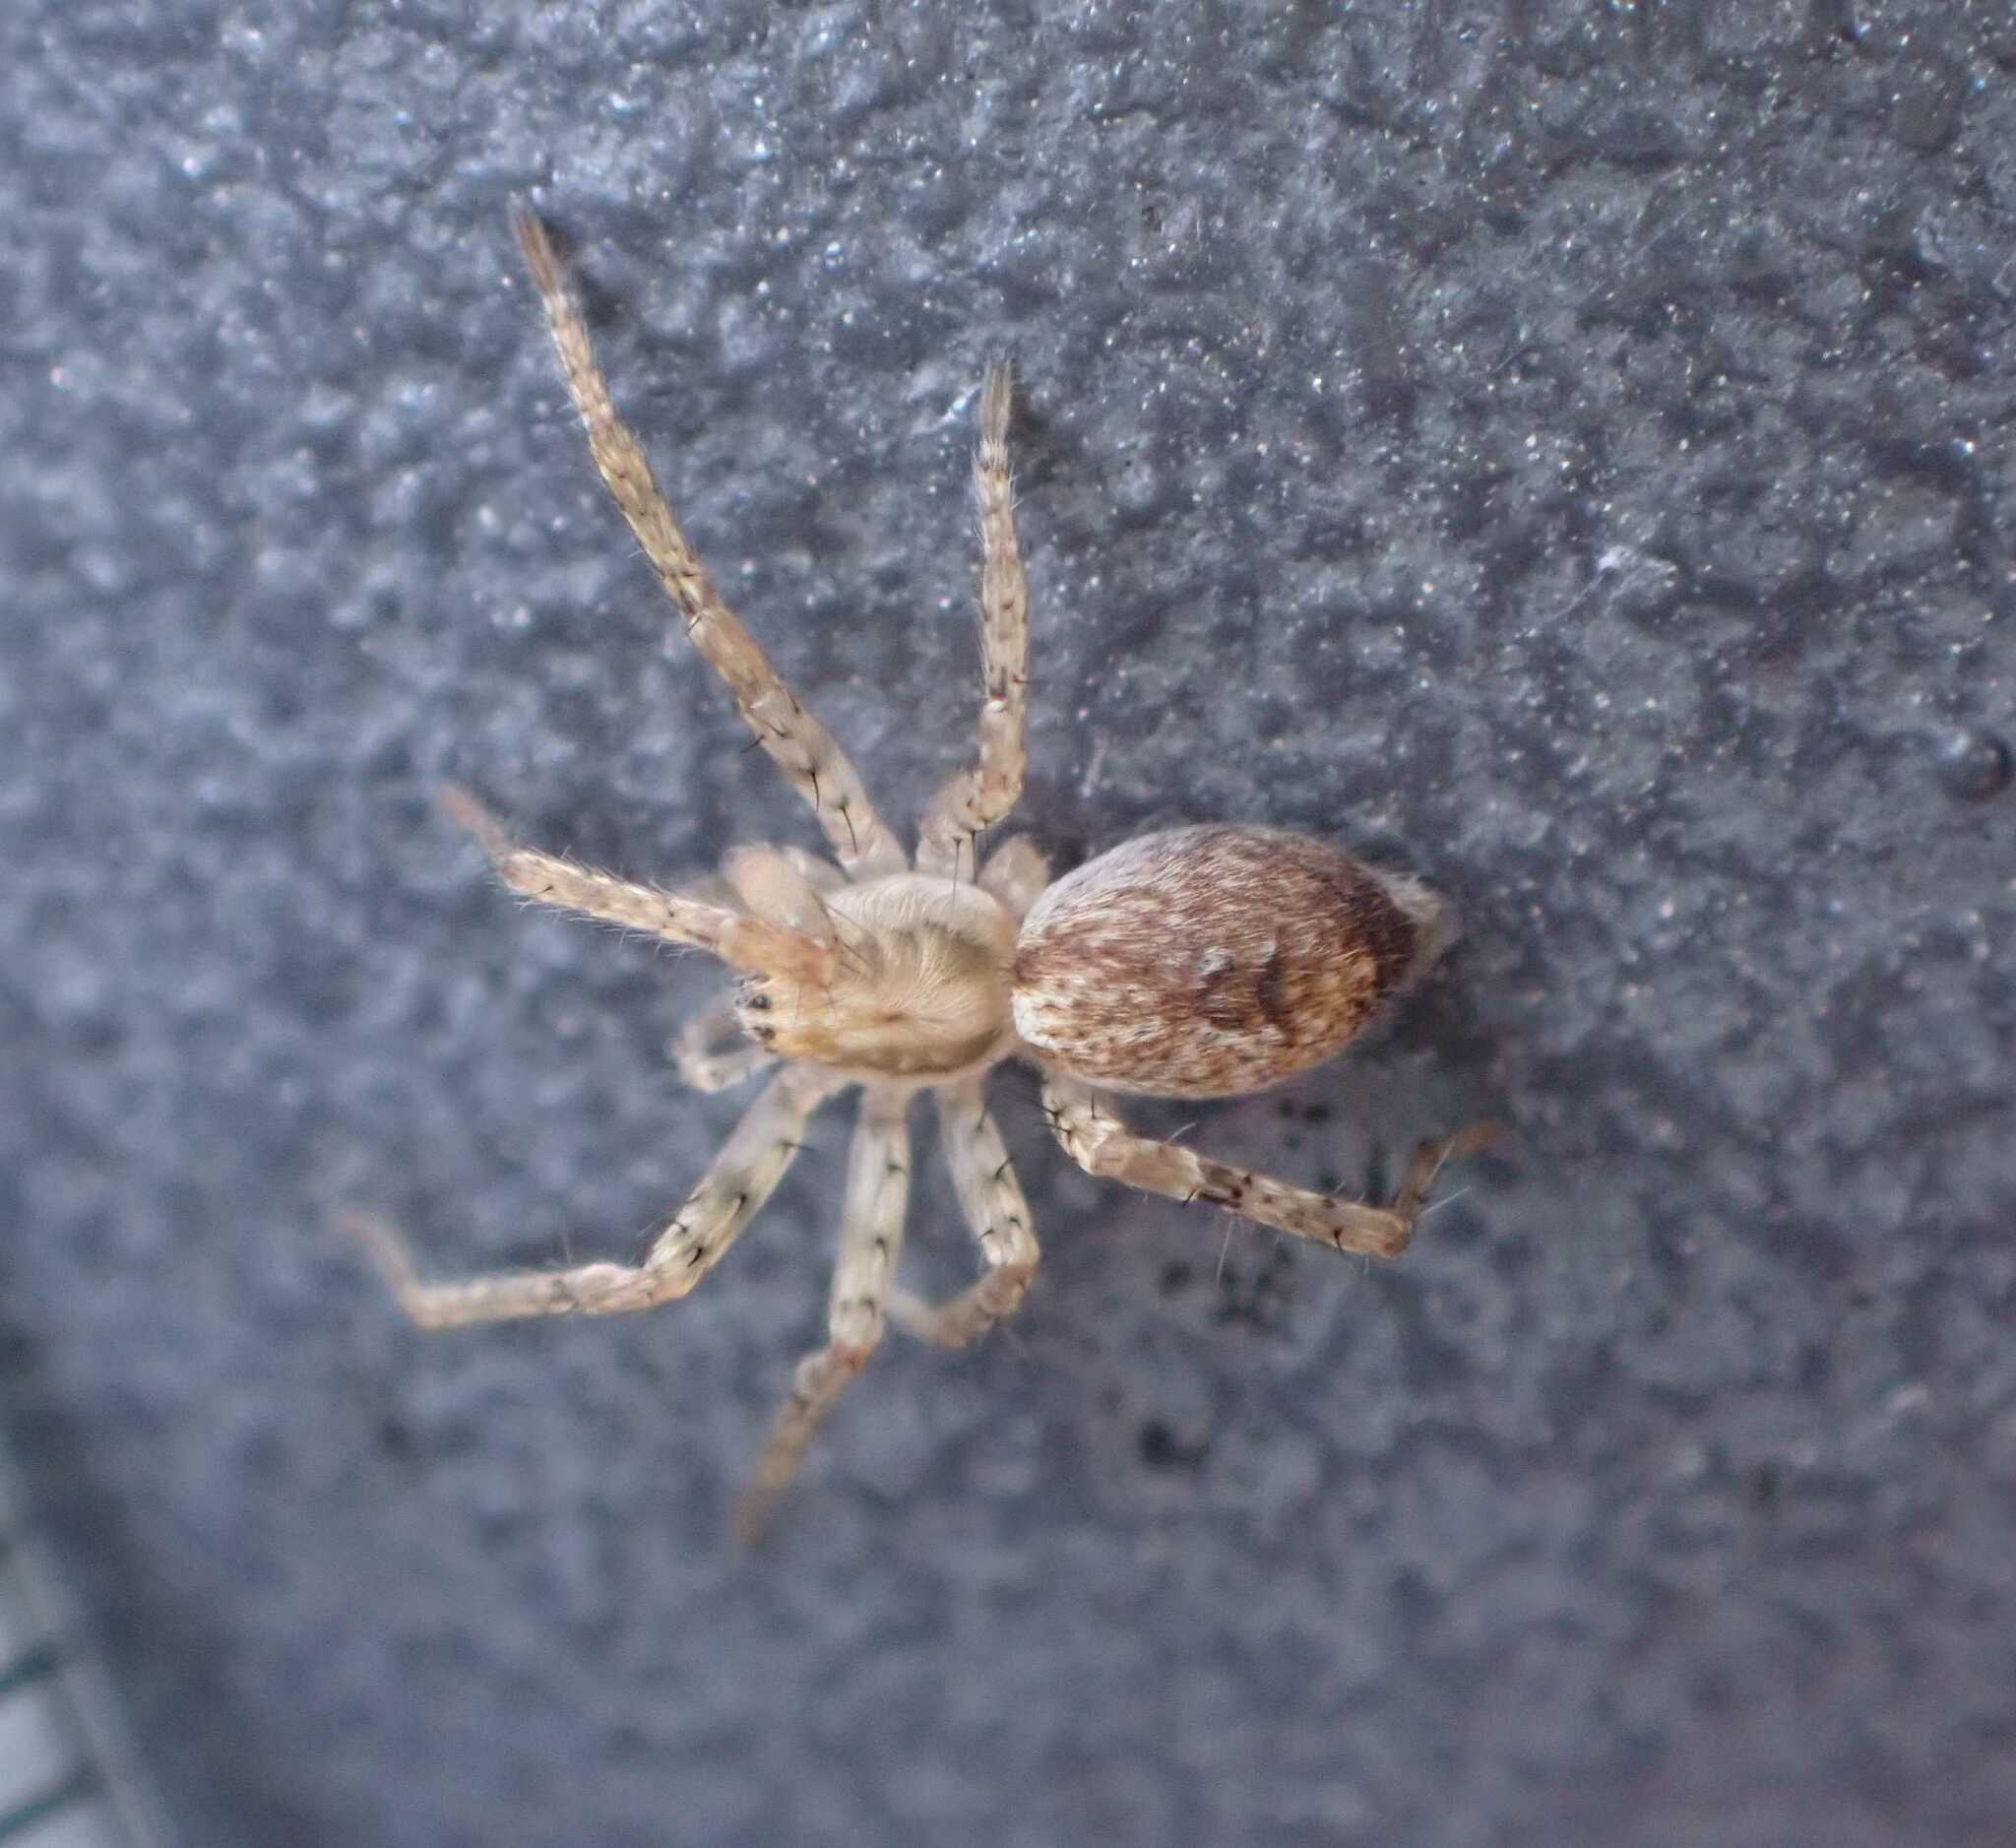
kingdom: Animalia
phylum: Arthropoda
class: Arachnida
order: Araneae
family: Anyphaenidae
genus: Anyphaena
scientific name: Anyphaena accentuata
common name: Buzzing spider
